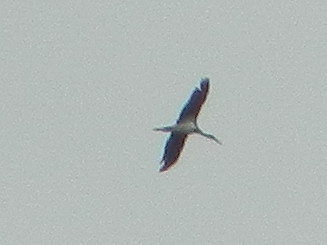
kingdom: Animalia
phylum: Chordata
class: Aves
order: Ciconiiformes
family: Ciconiidae
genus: Ciconia
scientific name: Ciconia nigra
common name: Black stork
